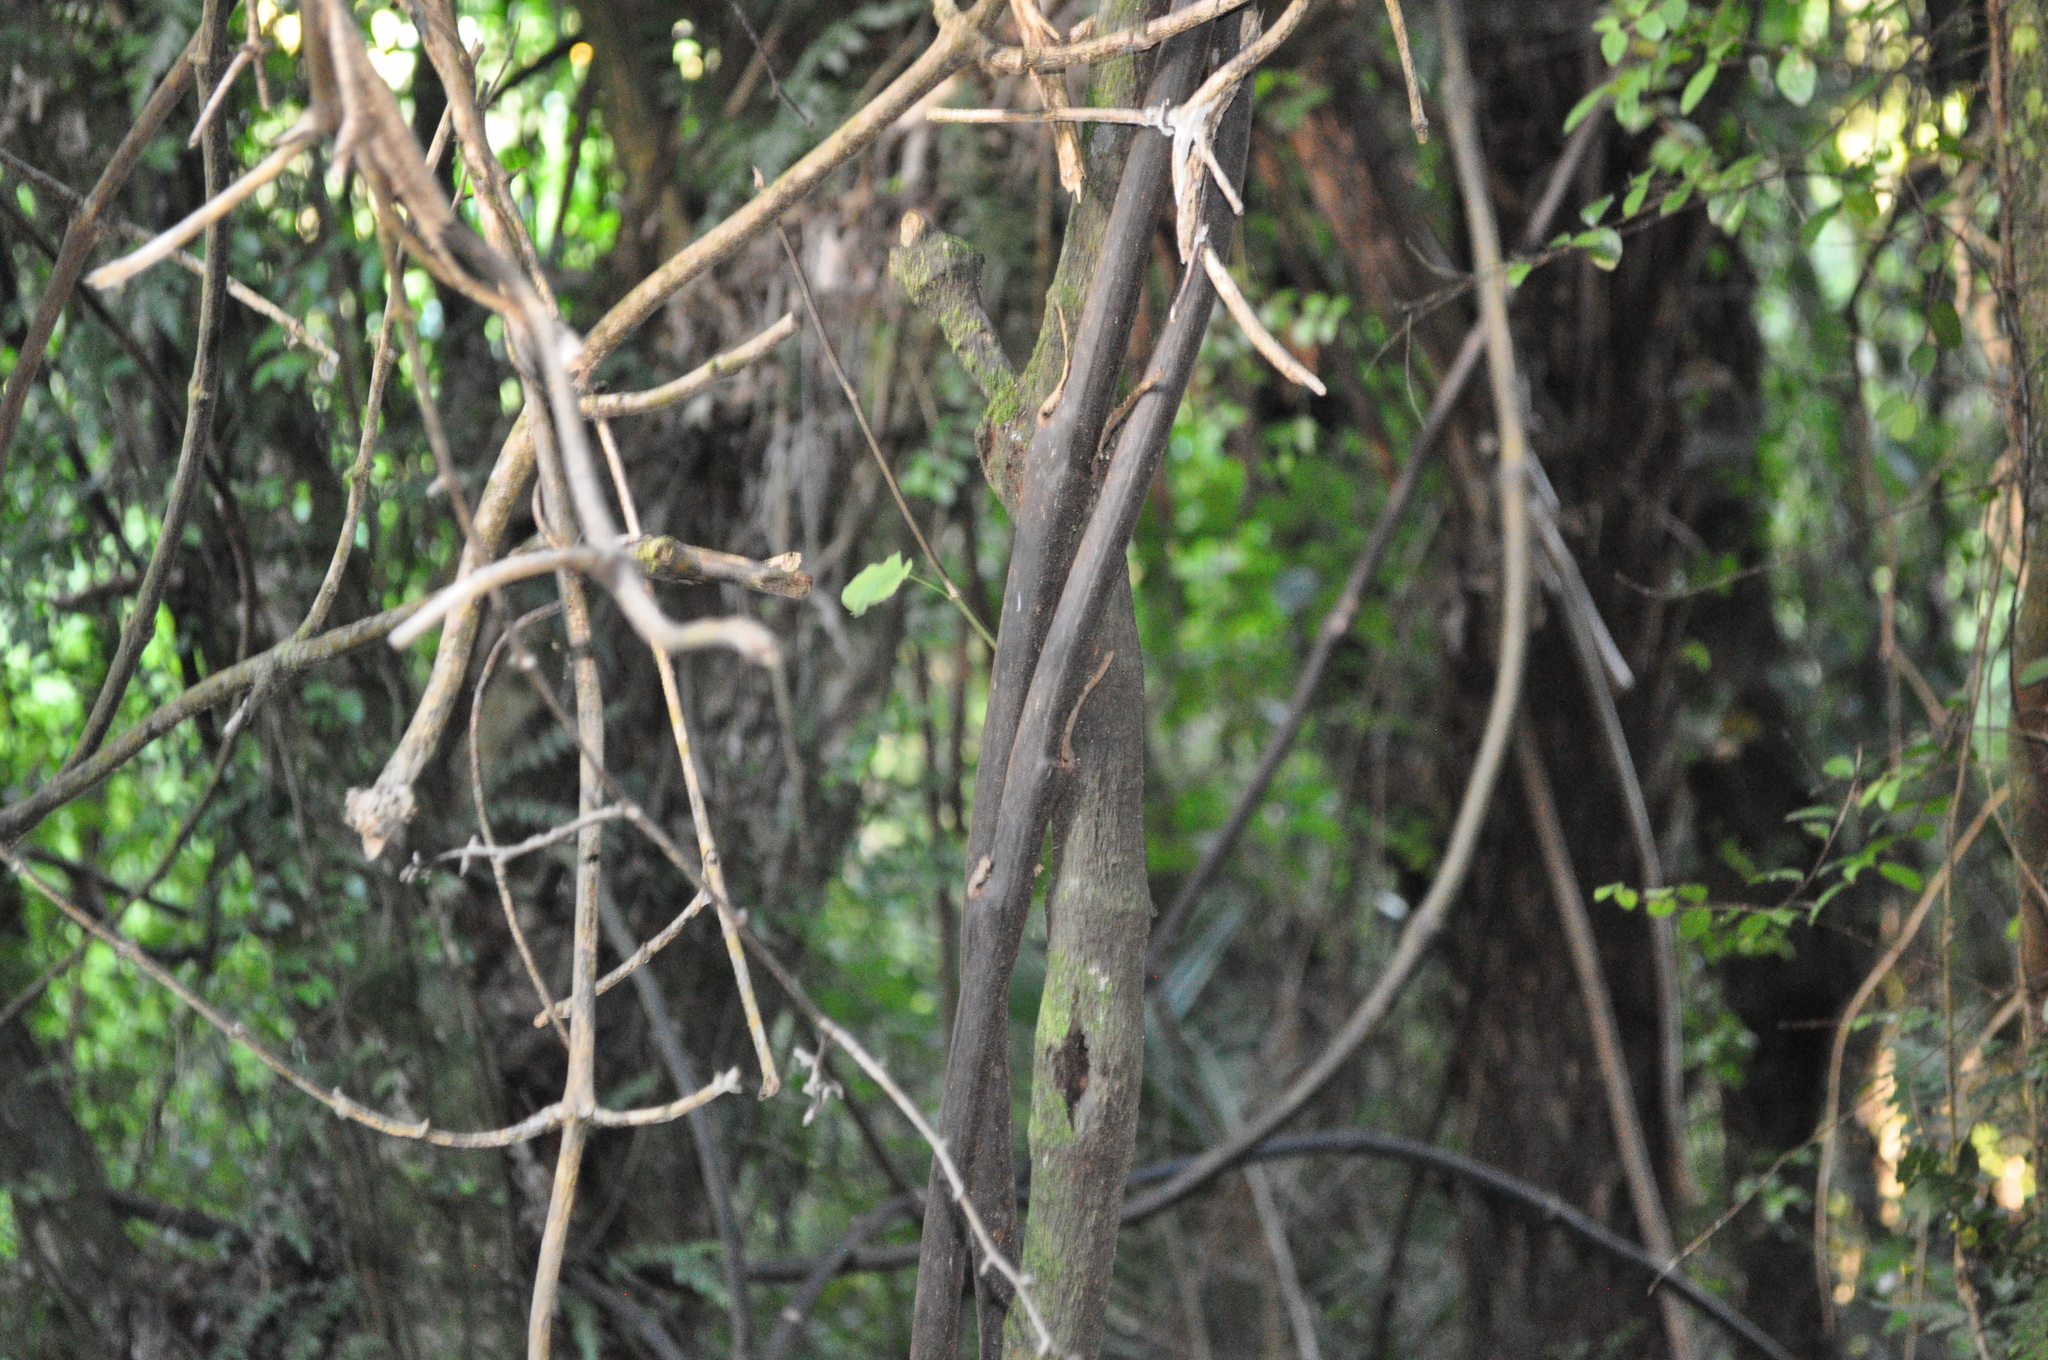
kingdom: Plantae
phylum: Tracheophyta
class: Liliopsida
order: Liliales
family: Ripogonaceae
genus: Ripogonum
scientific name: Ripogonum scandens
